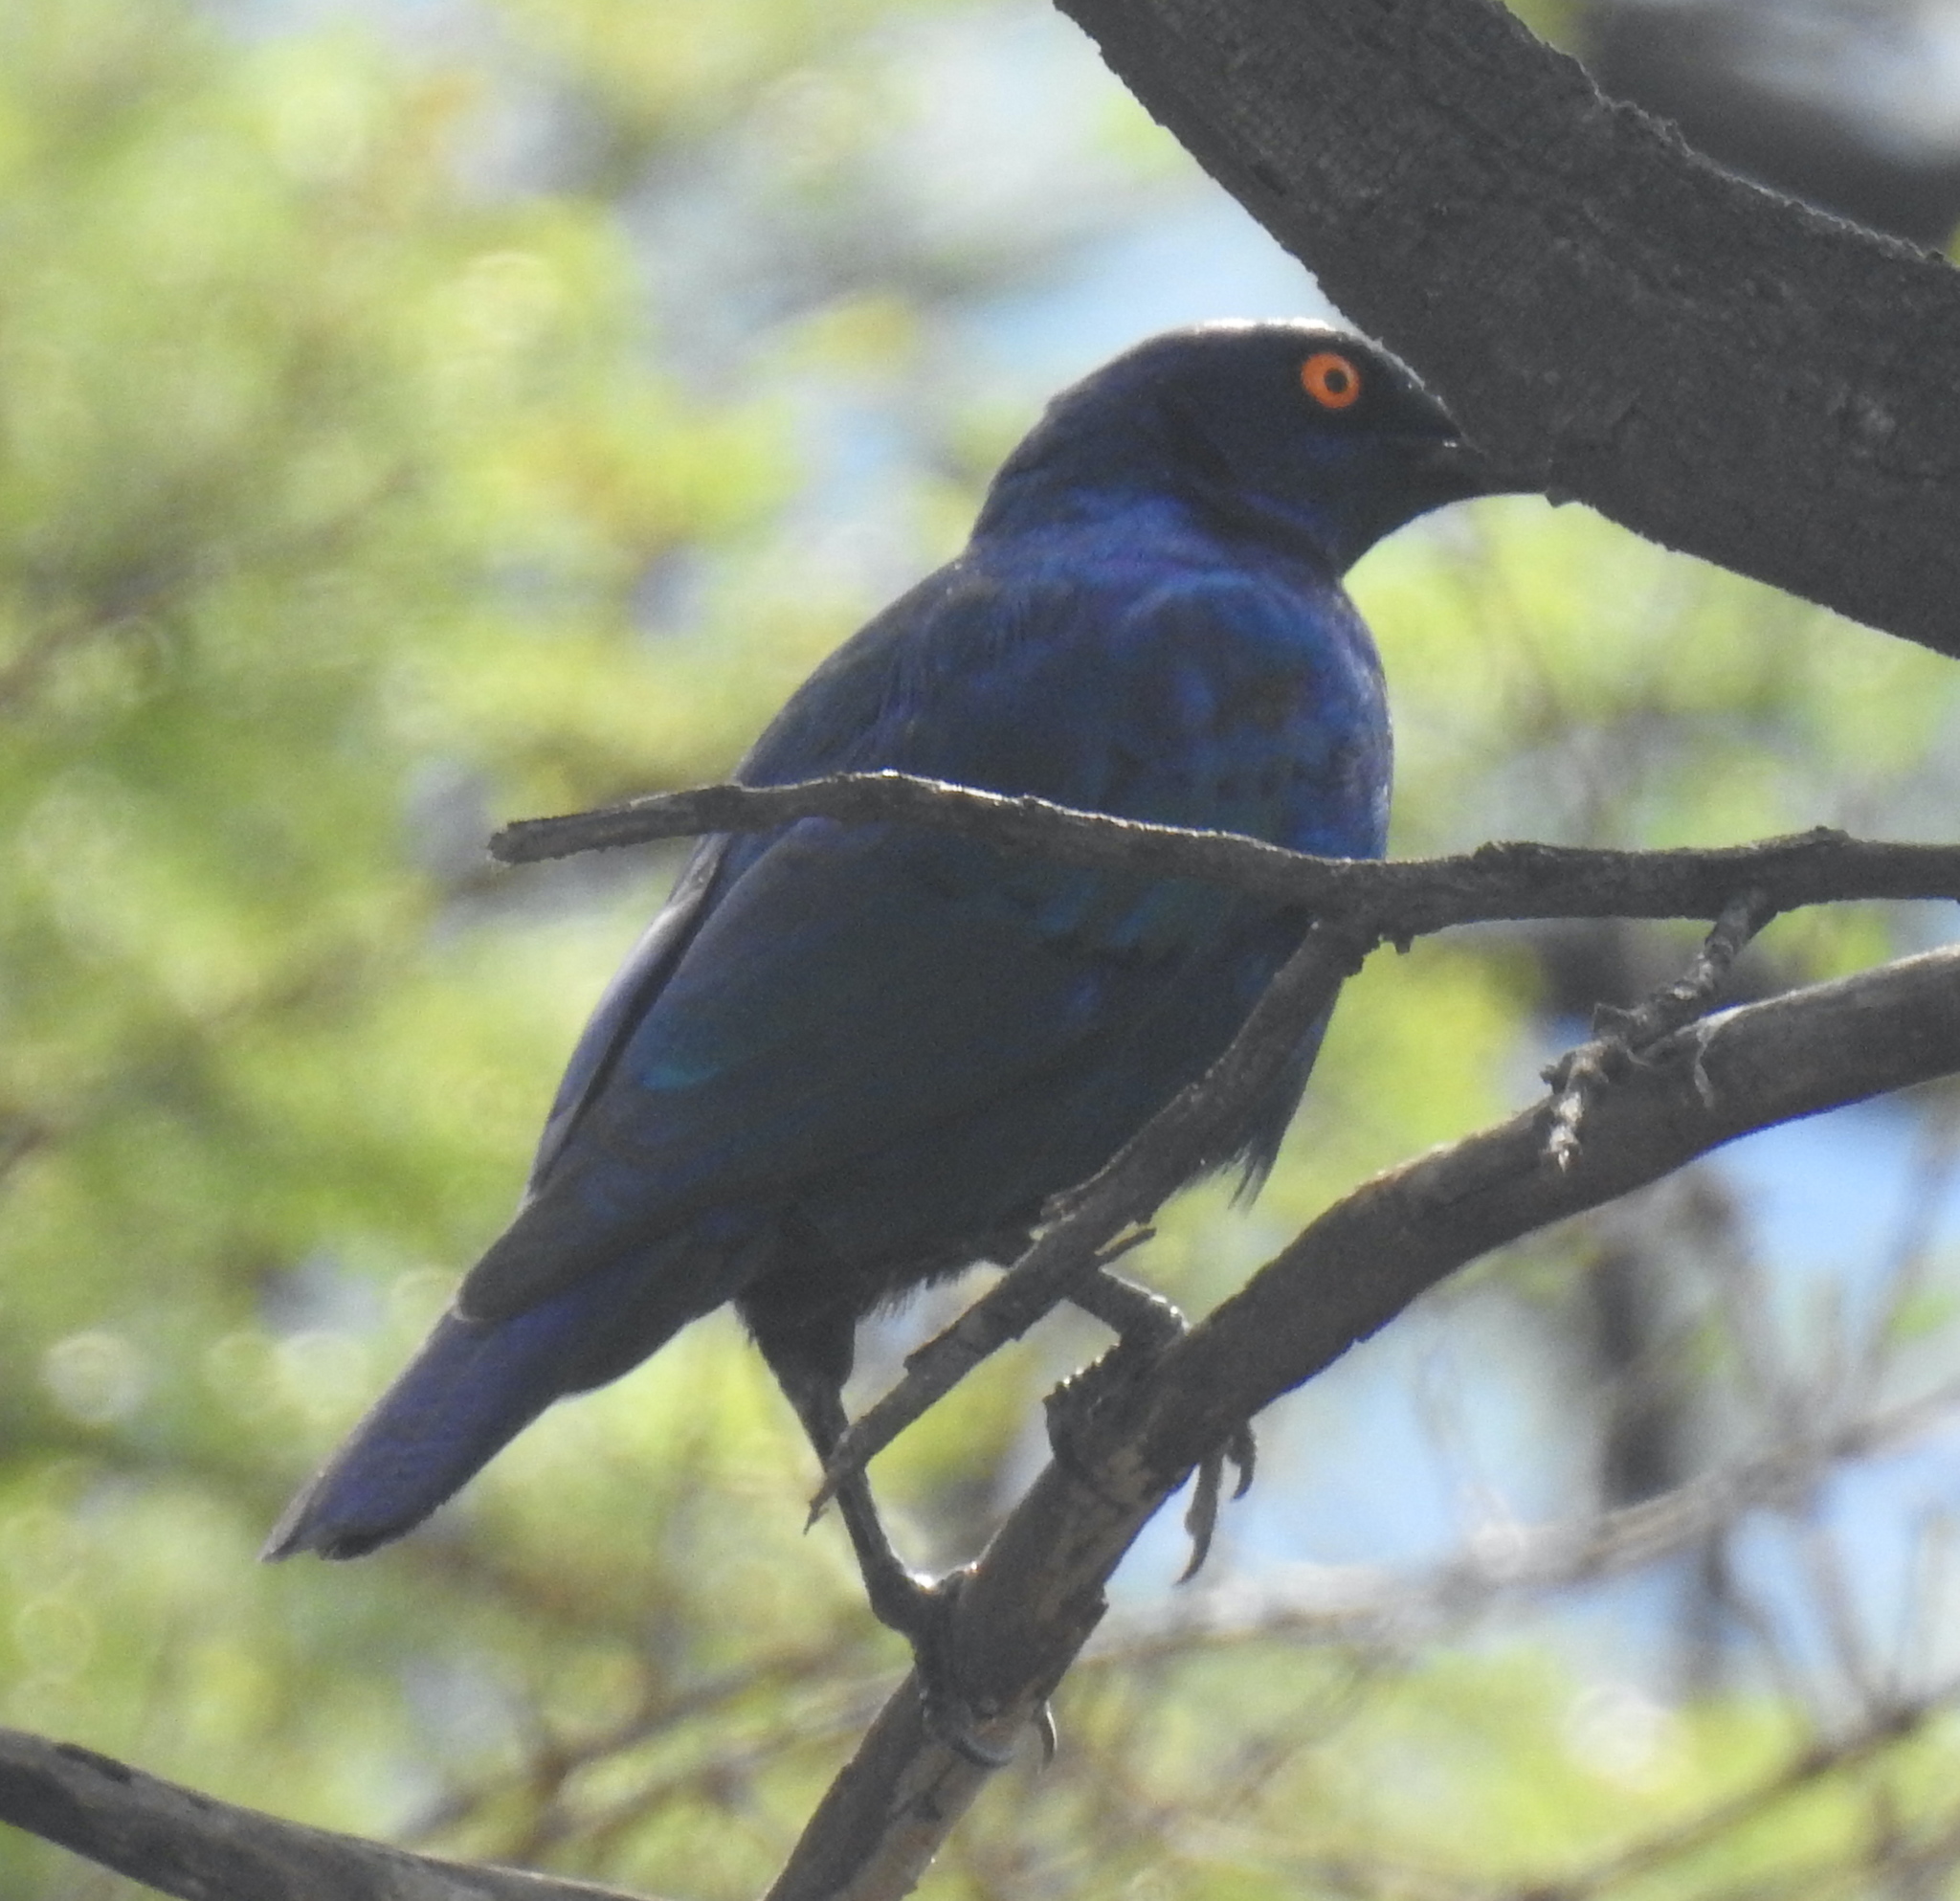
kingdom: Animalia
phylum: Chordata
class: Aves
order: Passeriformes
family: Sturnidae
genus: Lamprotornis
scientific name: Lamprotornis nitens
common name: Cape starling
